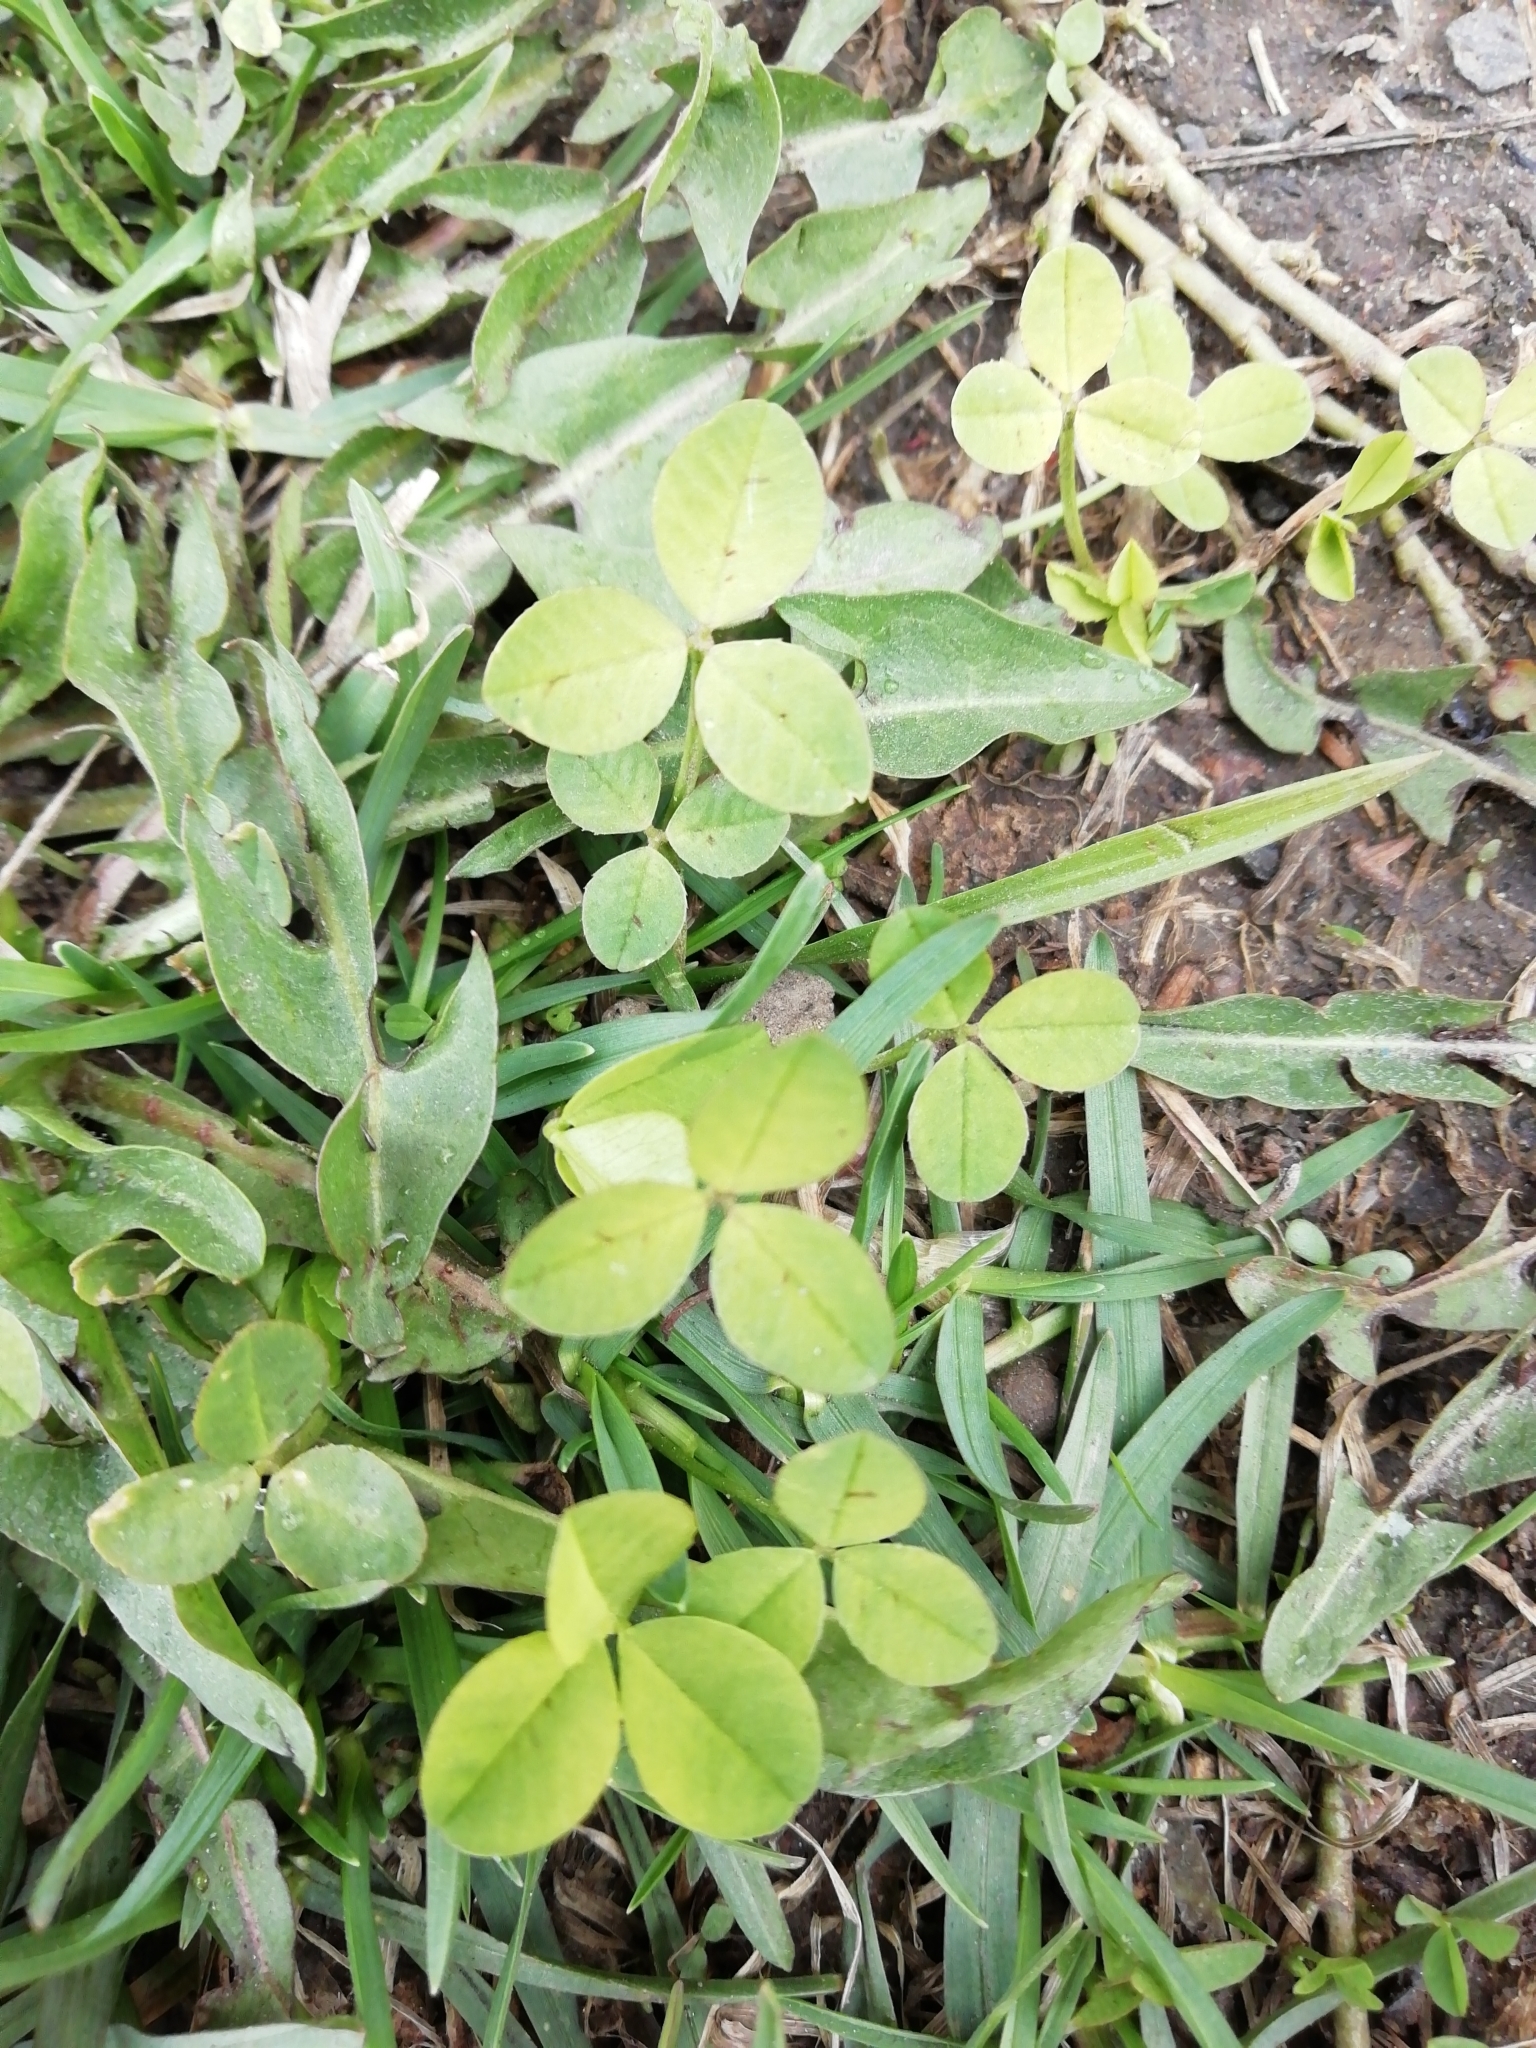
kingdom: Plantae
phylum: Tracheophyta
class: Magnoliopsida
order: Fabales
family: Fabaceae
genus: Trifolium
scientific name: Trifolium repens
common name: White clover
